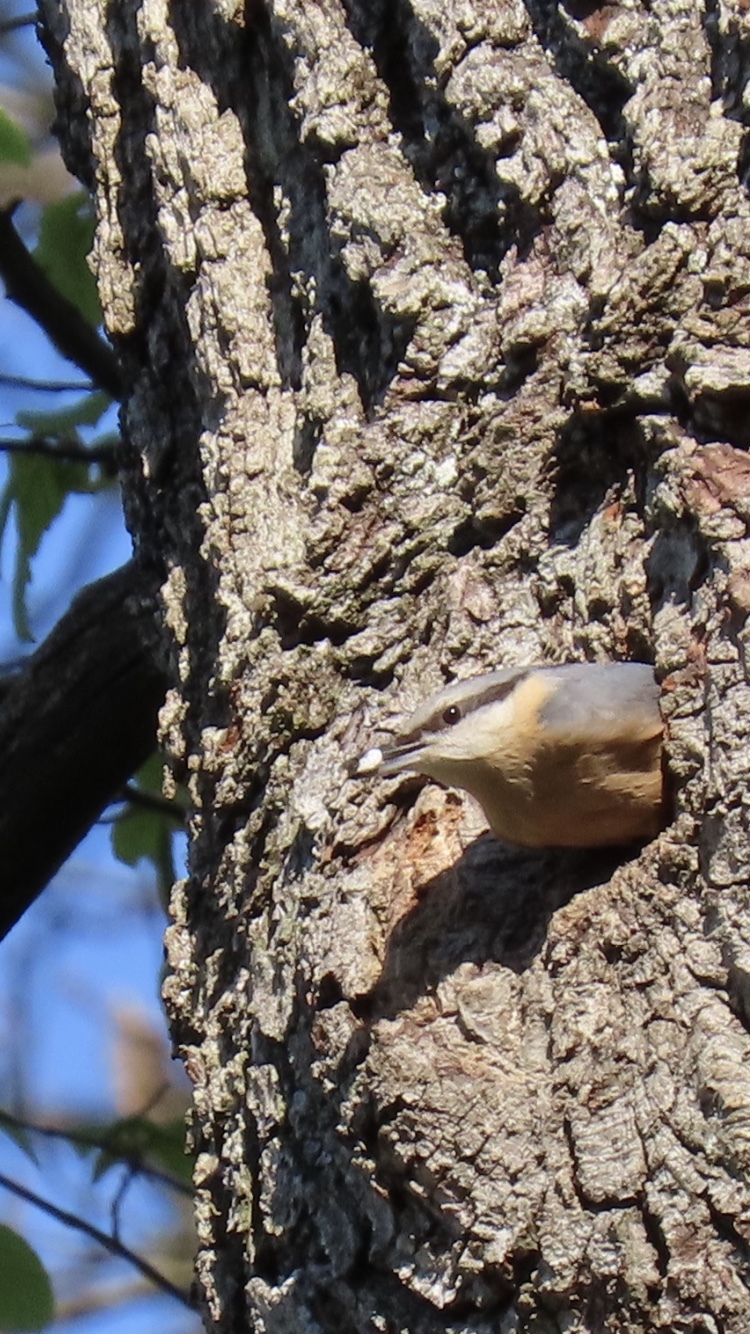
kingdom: Animalia
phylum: Chordata
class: Aves
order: Passeriformes
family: Sittidae
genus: Sitta
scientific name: Sitta europaea
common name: Eurasian nuthatch
